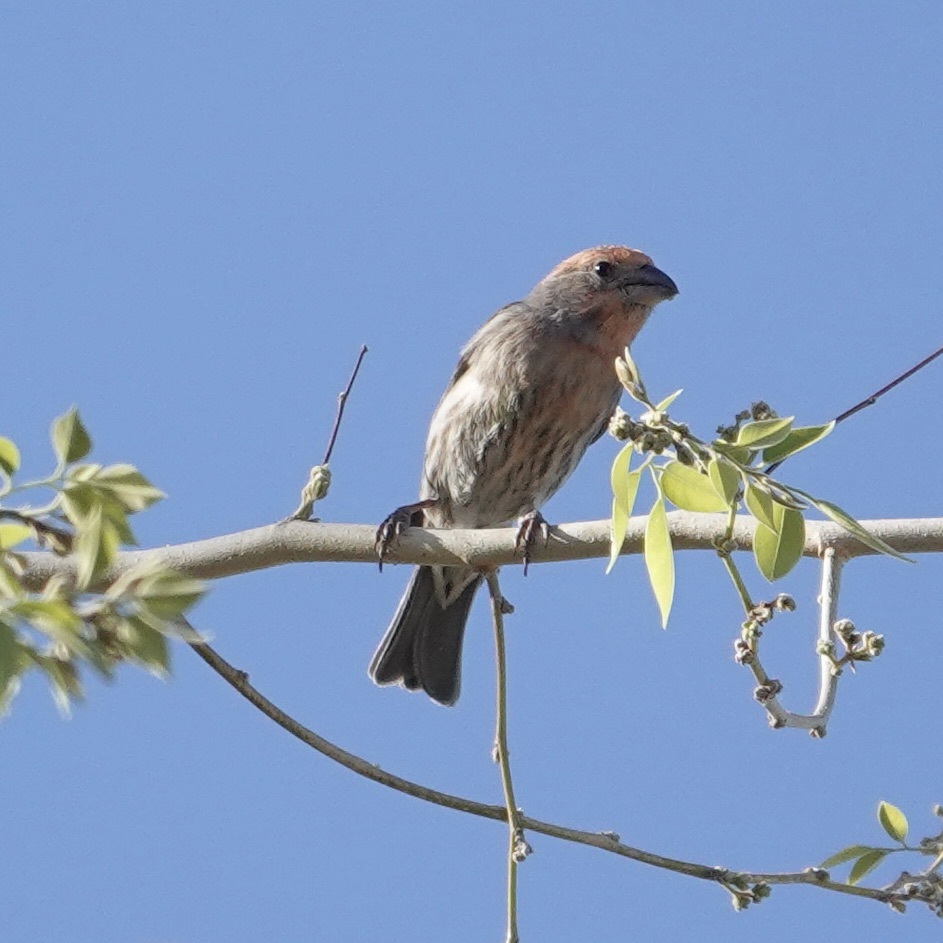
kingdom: Animalia
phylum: Chordata
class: Aves
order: Passeriformes
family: Fringillidae
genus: Haemorhous
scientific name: Haemorhous mexicanus
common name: House finch
